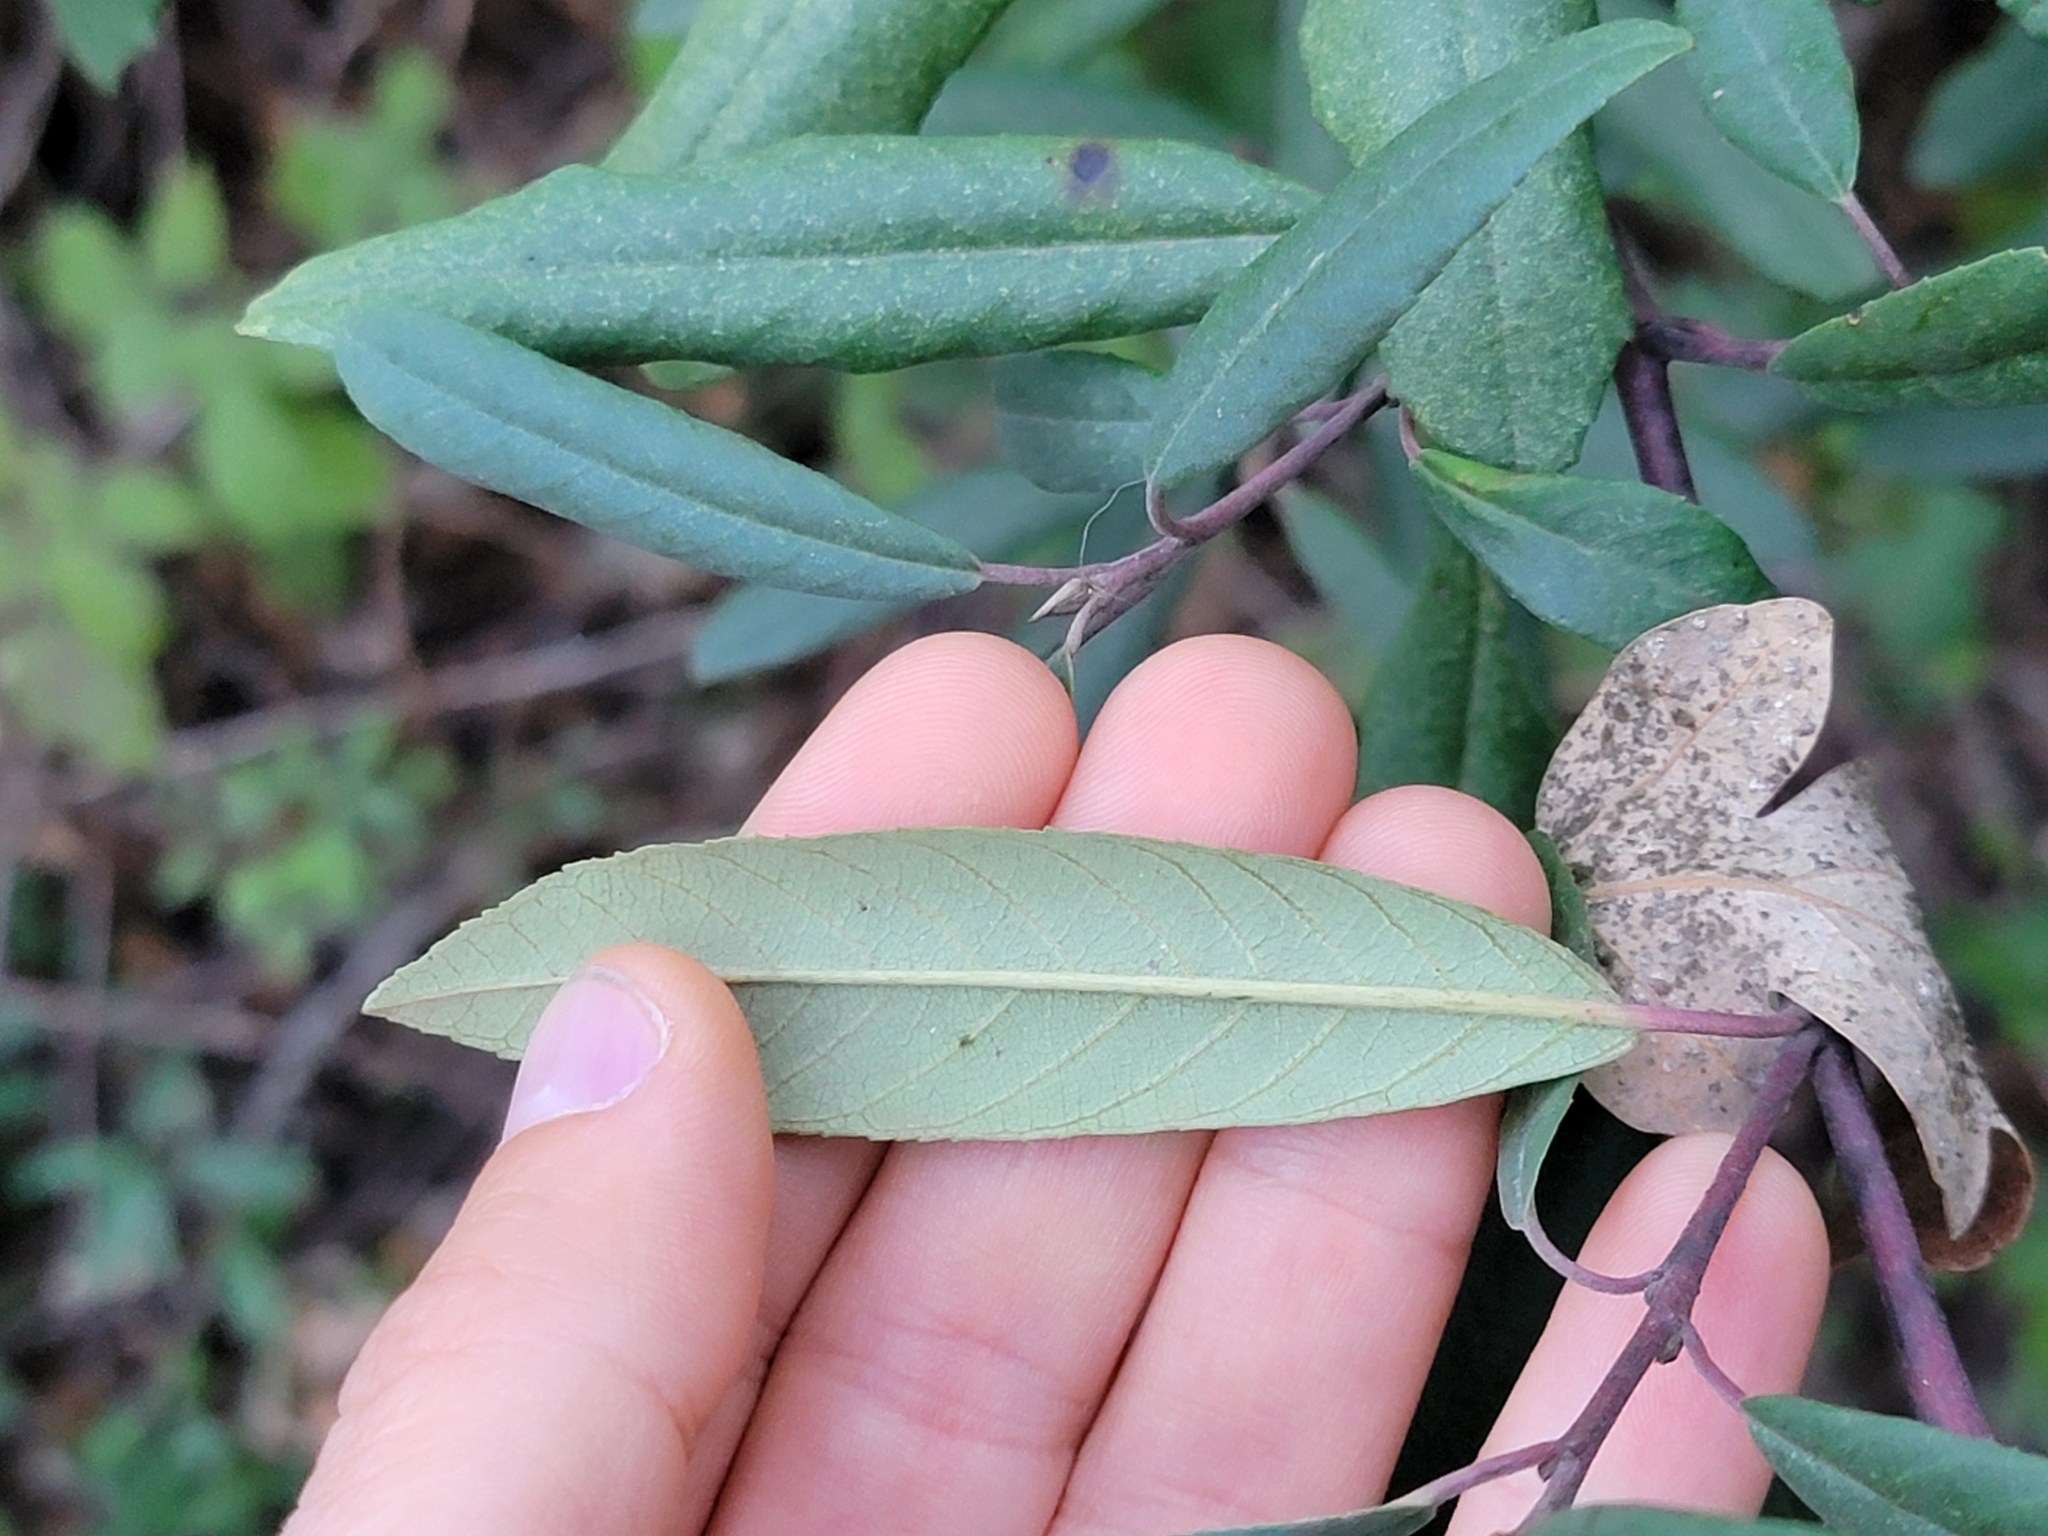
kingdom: Plantae
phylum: Tracheophyta
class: Magnoliopsida
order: Rosales
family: Rhamnaceae
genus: Frangula
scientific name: Frangula californica
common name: California buckthorn
